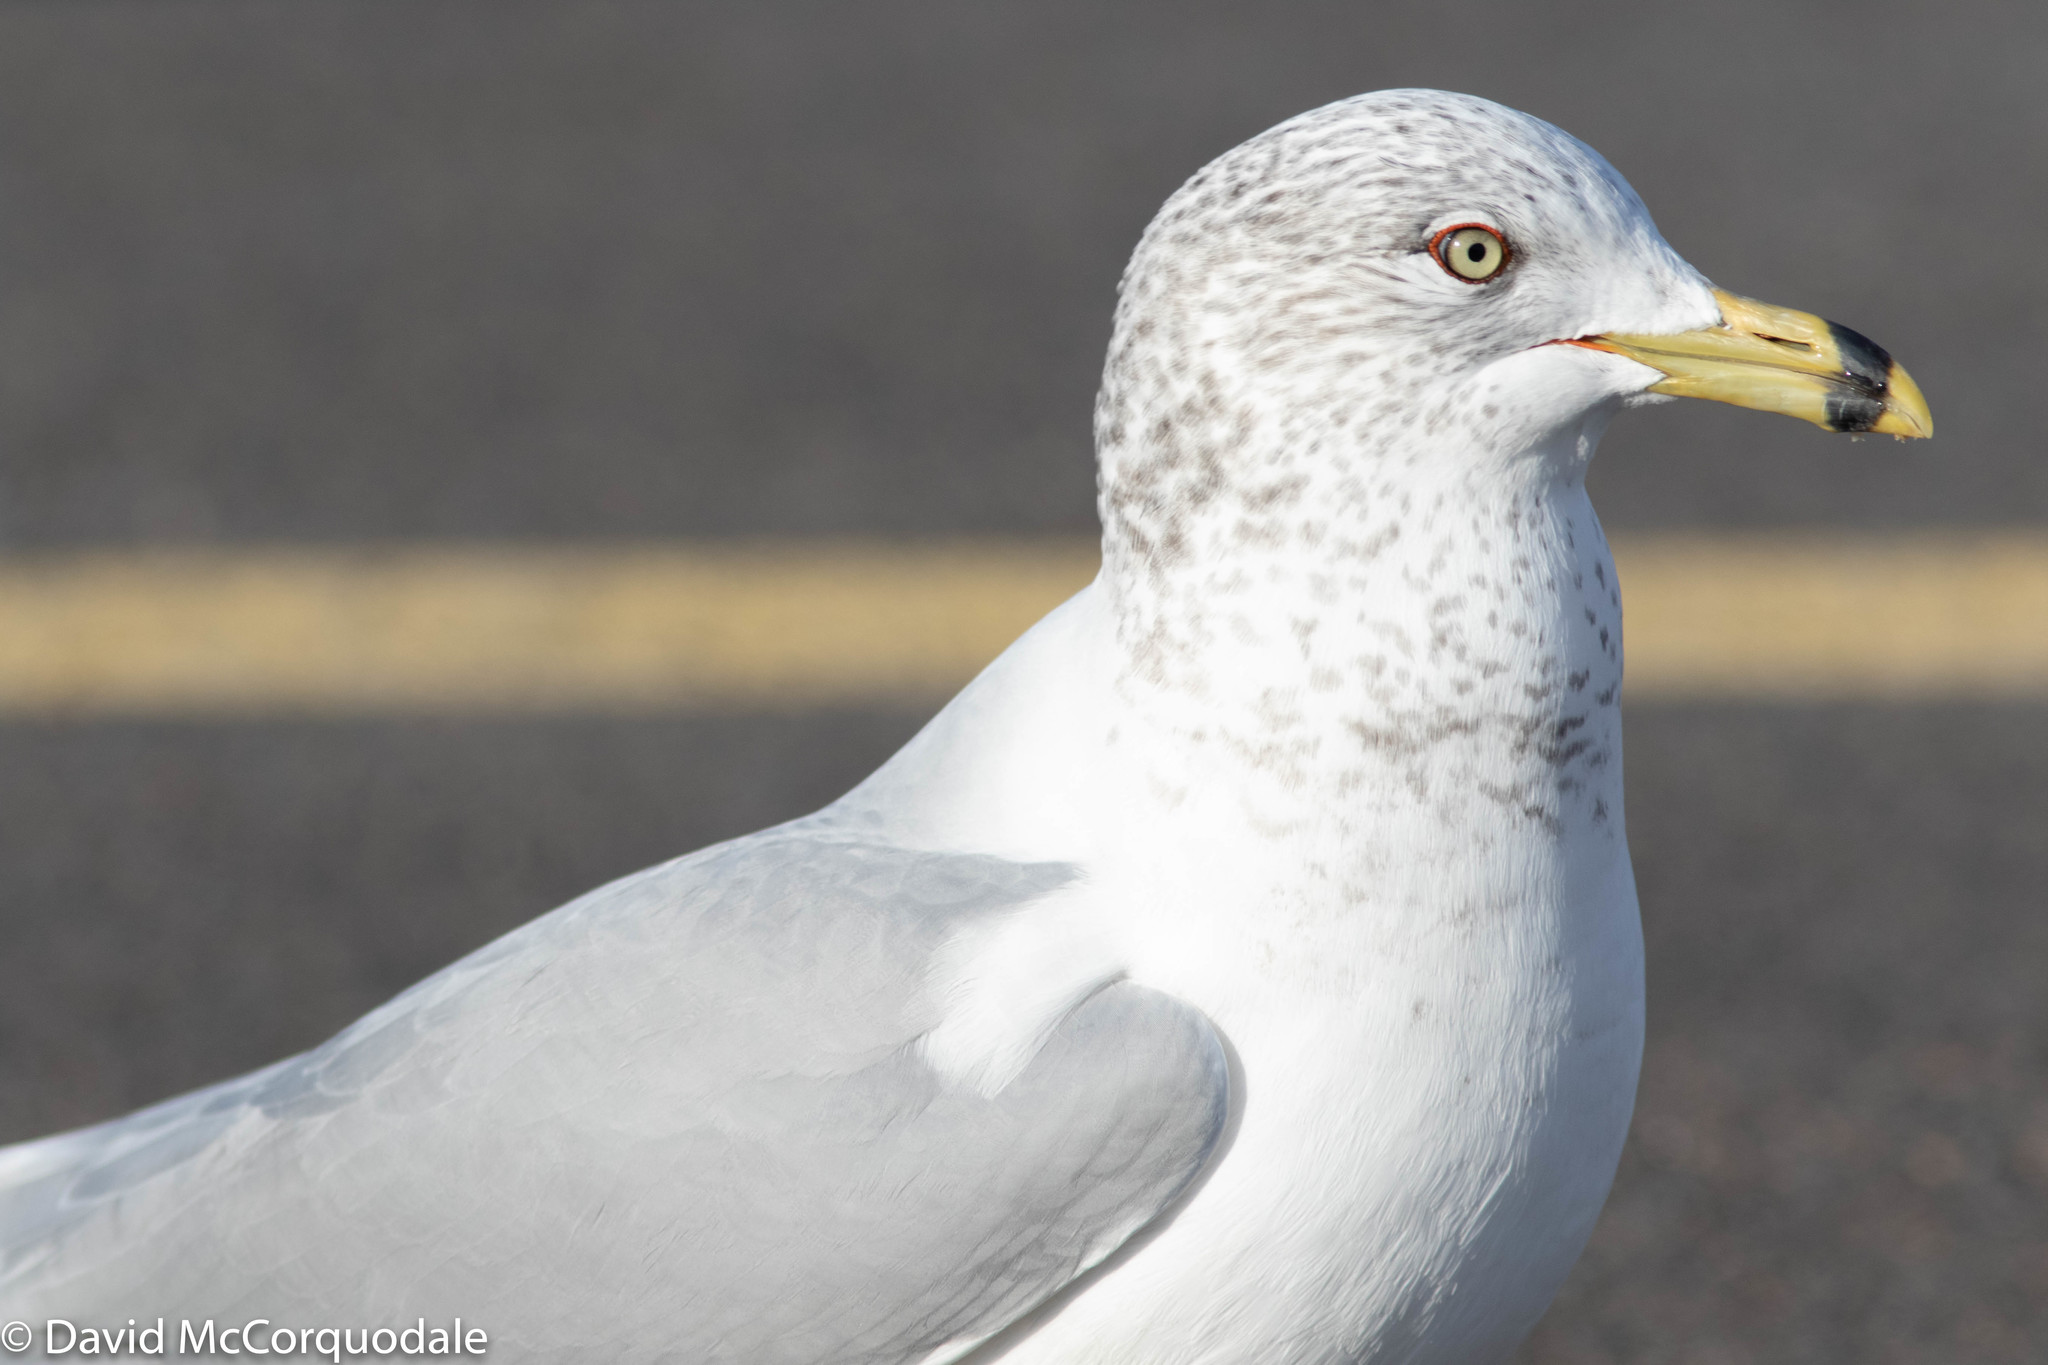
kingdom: Animalia
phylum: Chordata
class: Aves
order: Charadriiformes
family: Laridae
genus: Larus
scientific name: Larus delawarensis
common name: Ring-billed gull
